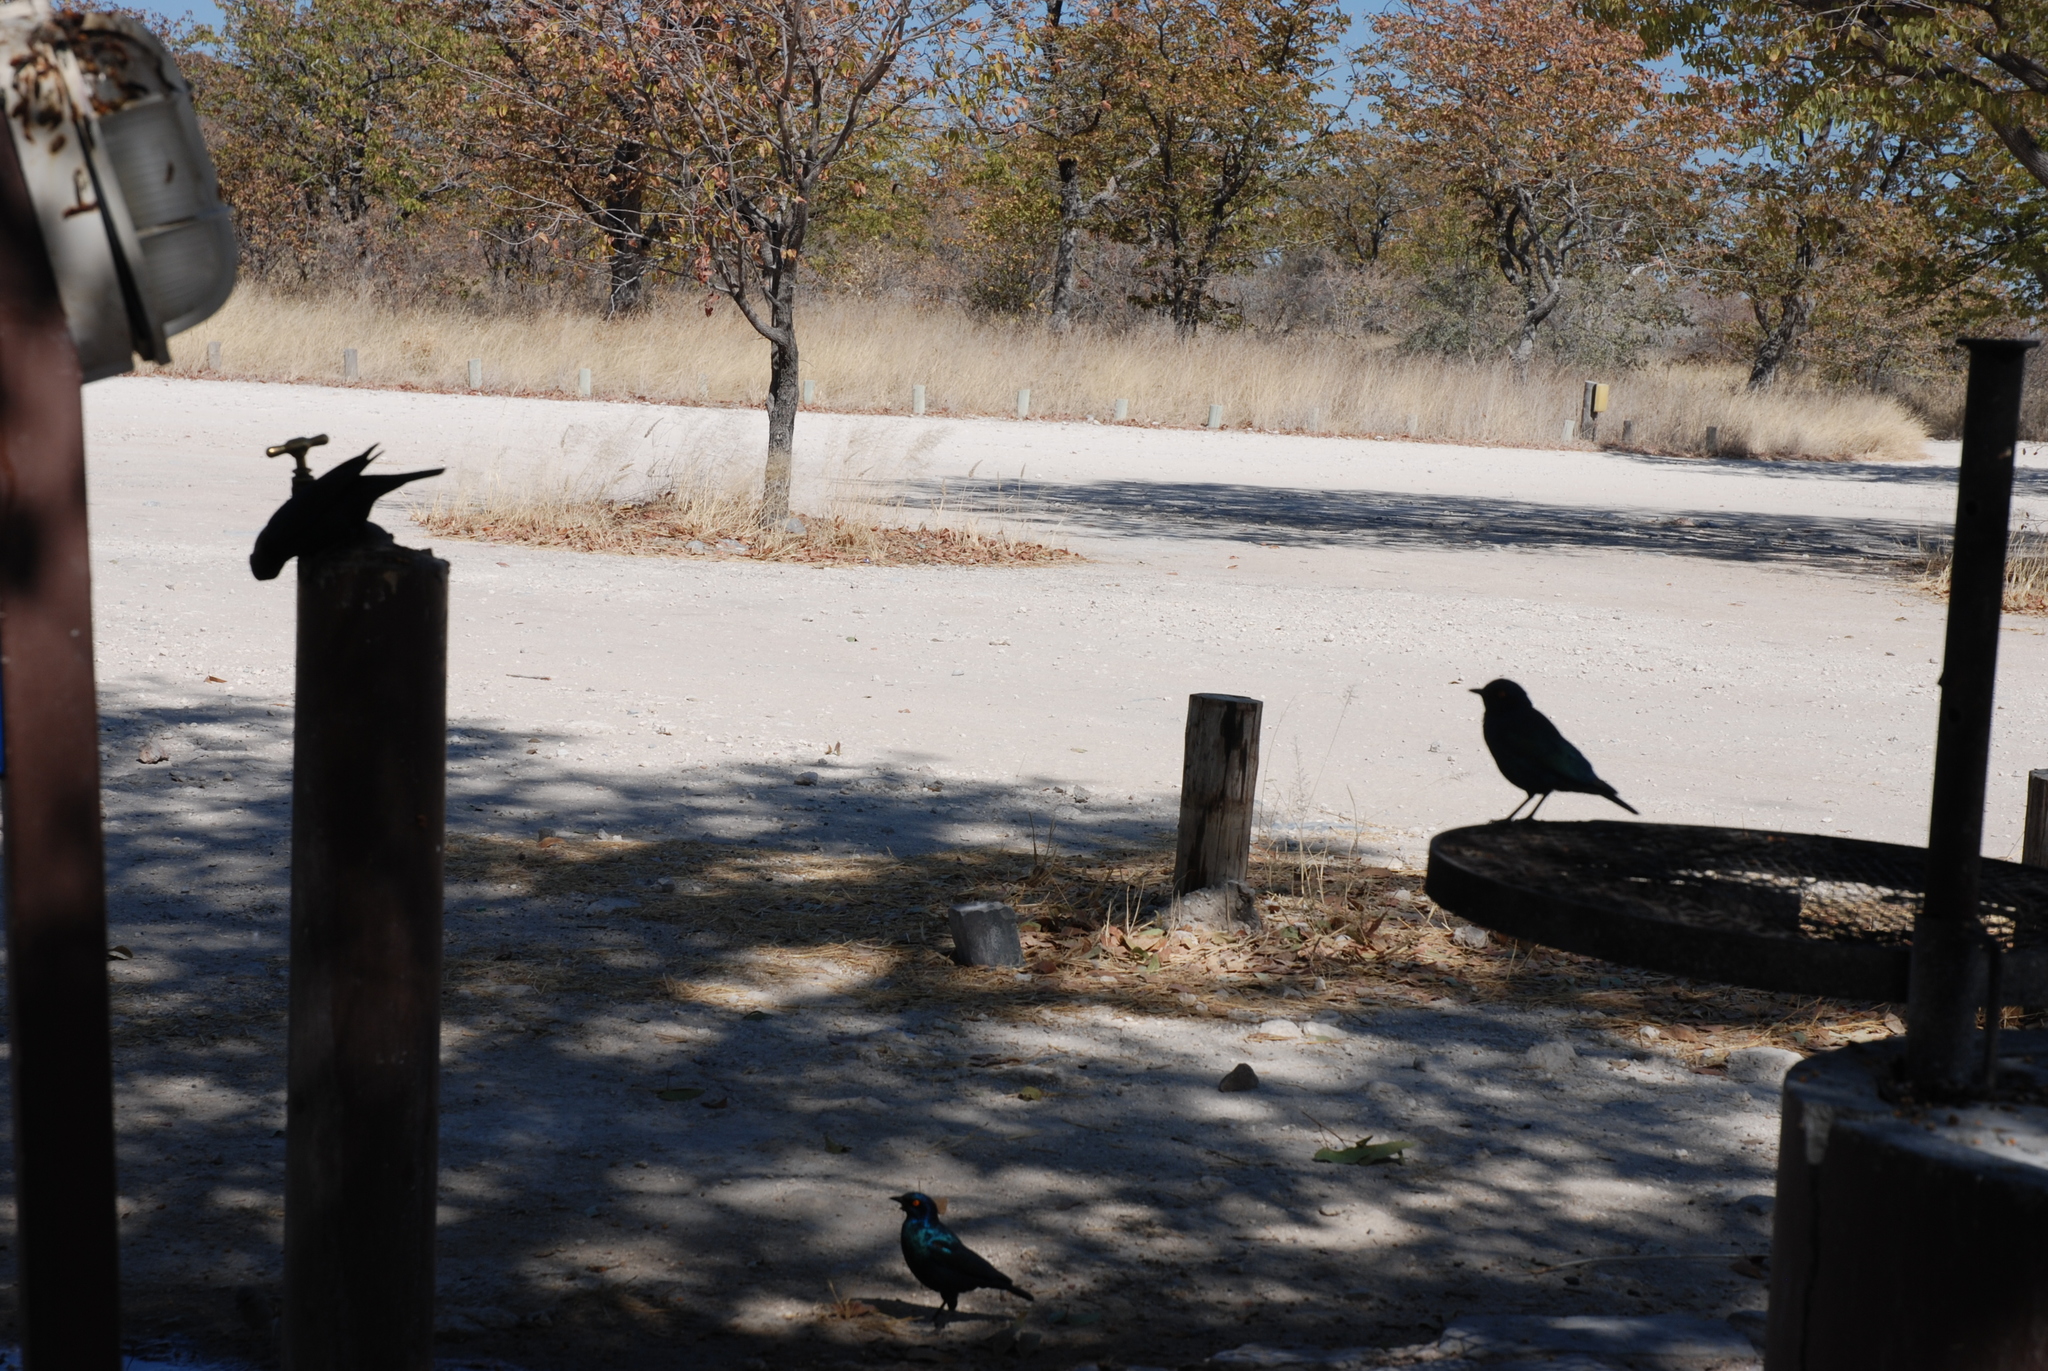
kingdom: Animalia
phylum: Chordata
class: Aves
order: Passeriformes
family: Sturnidae
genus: Lamprotornis
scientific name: Lamprotornis nitens
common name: Cape starling
